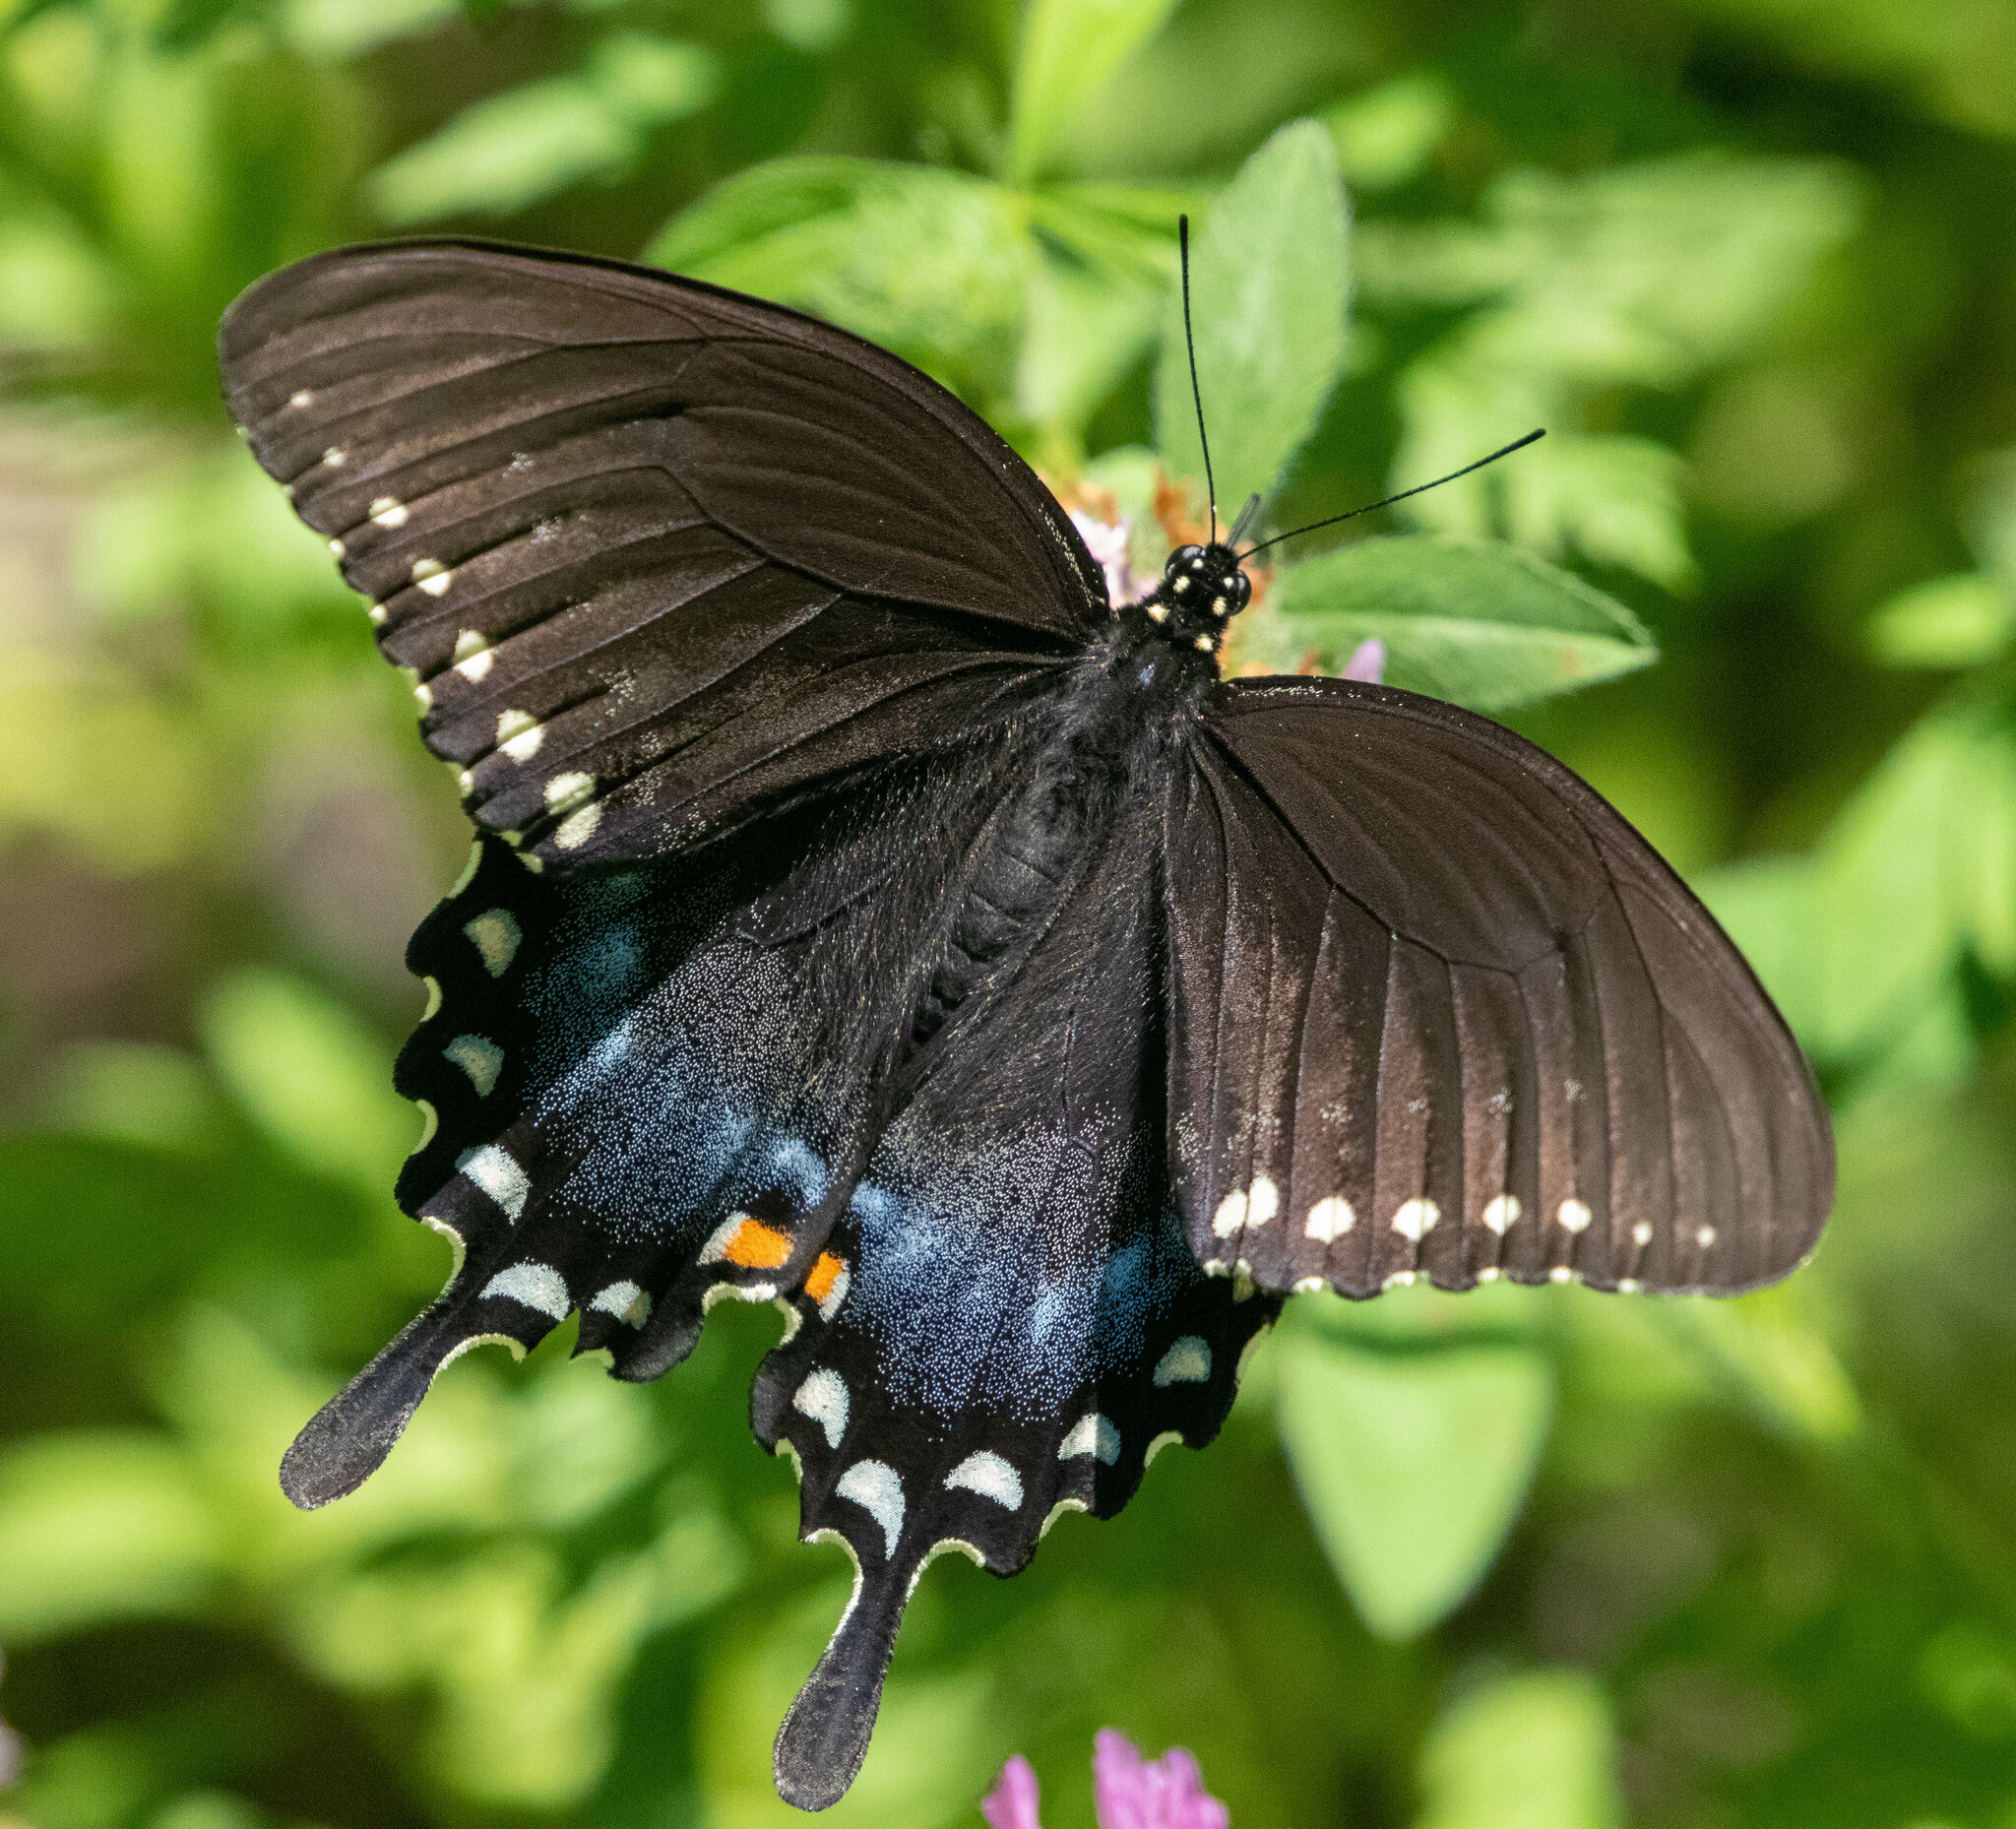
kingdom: Animalia
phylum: Arthropoda
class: Insecta
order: Lepidoptera
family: Papilionidae
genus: Papilio
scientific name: Papilio troilus
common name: Spicebush swallowtail
